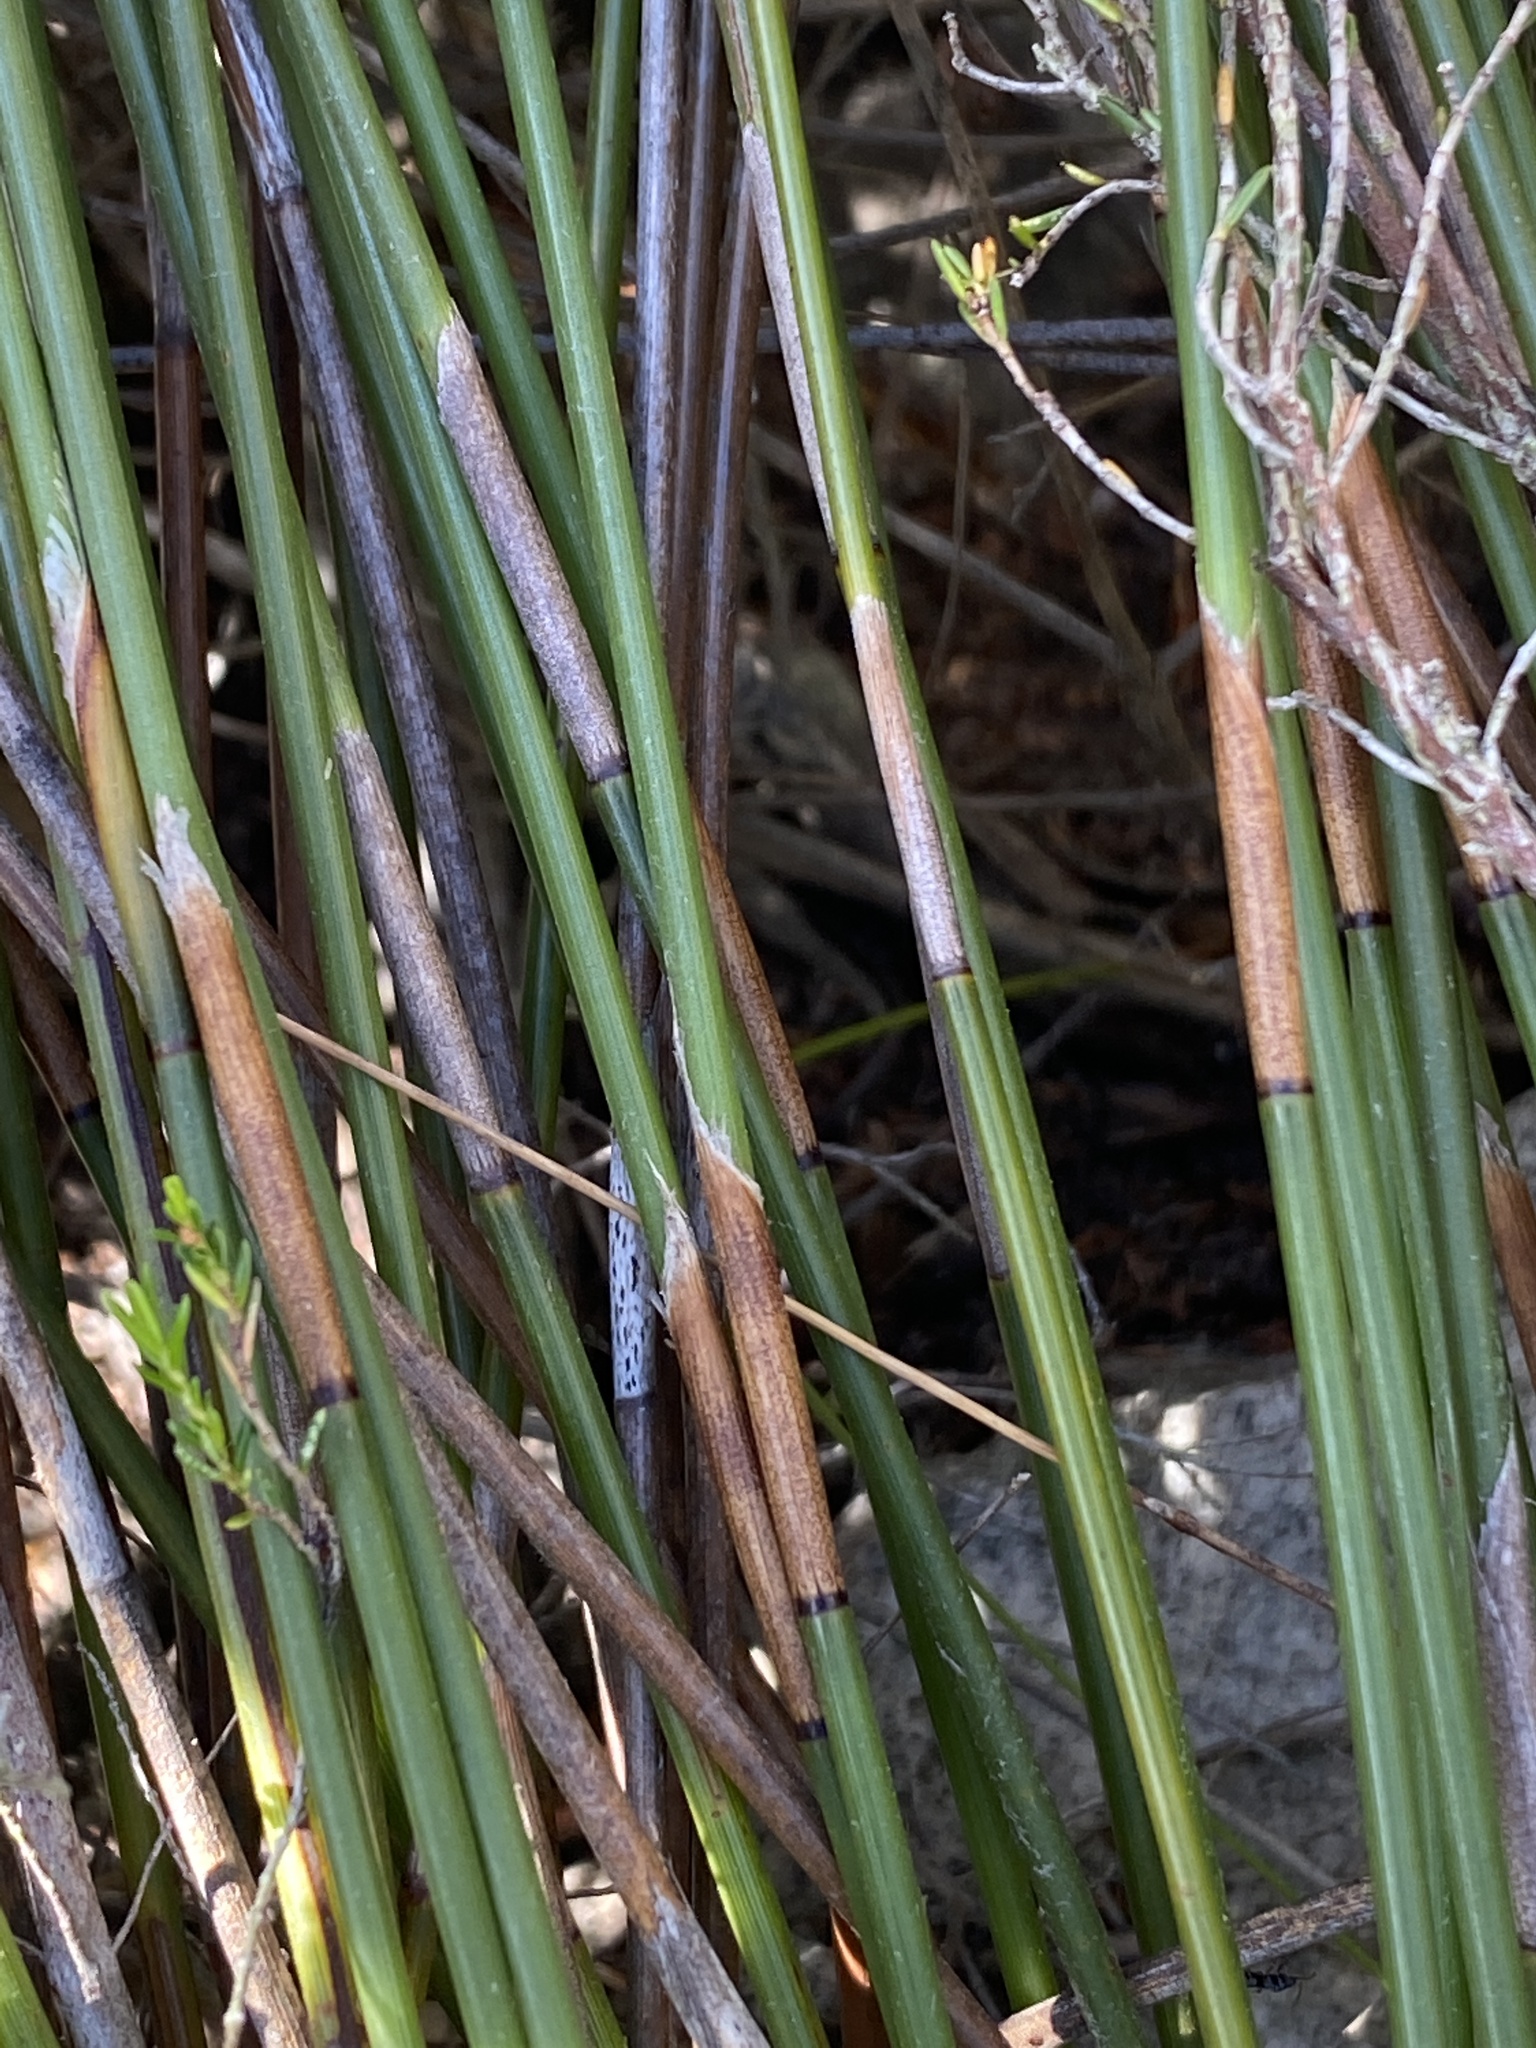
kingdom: Plantae
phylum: Tracheophyta
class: Liliopsida
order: Poales
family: Restionaceae
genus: Hypodiscus
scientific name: Hypodiscus argenteus
